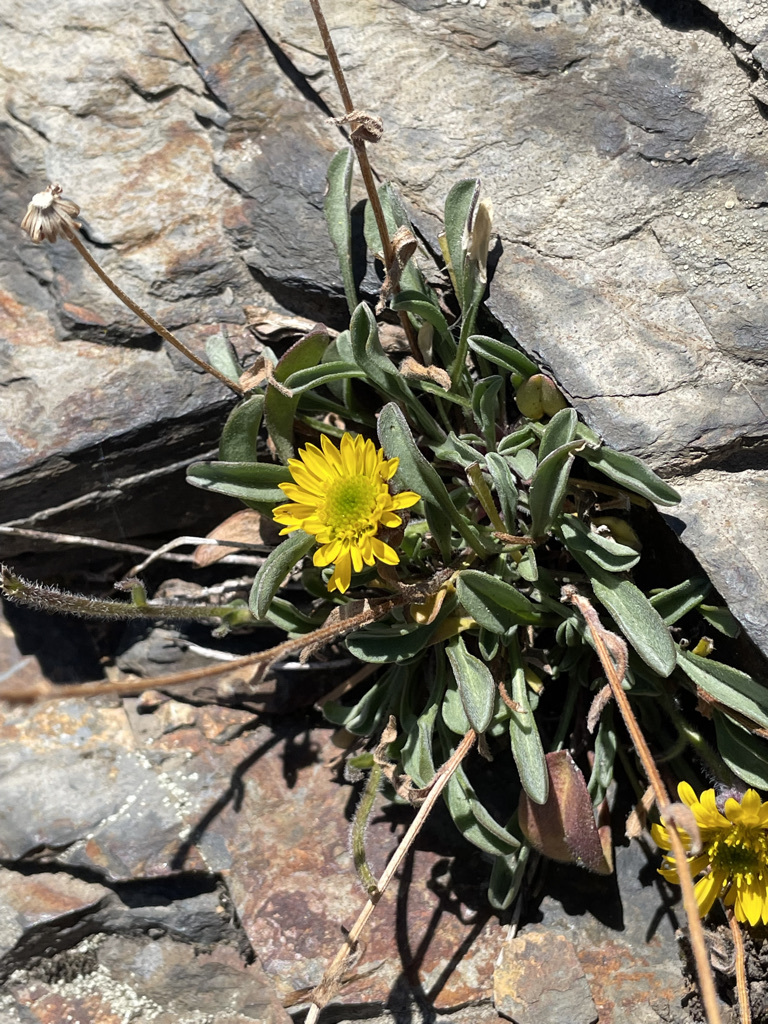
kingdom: Plantae
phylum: Tracheophyta
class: Magnoliopsida
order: Asterales
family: Asteraceae
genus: Erigeron
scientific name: Erigeron aureus
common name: Alpine yellow fleabane
